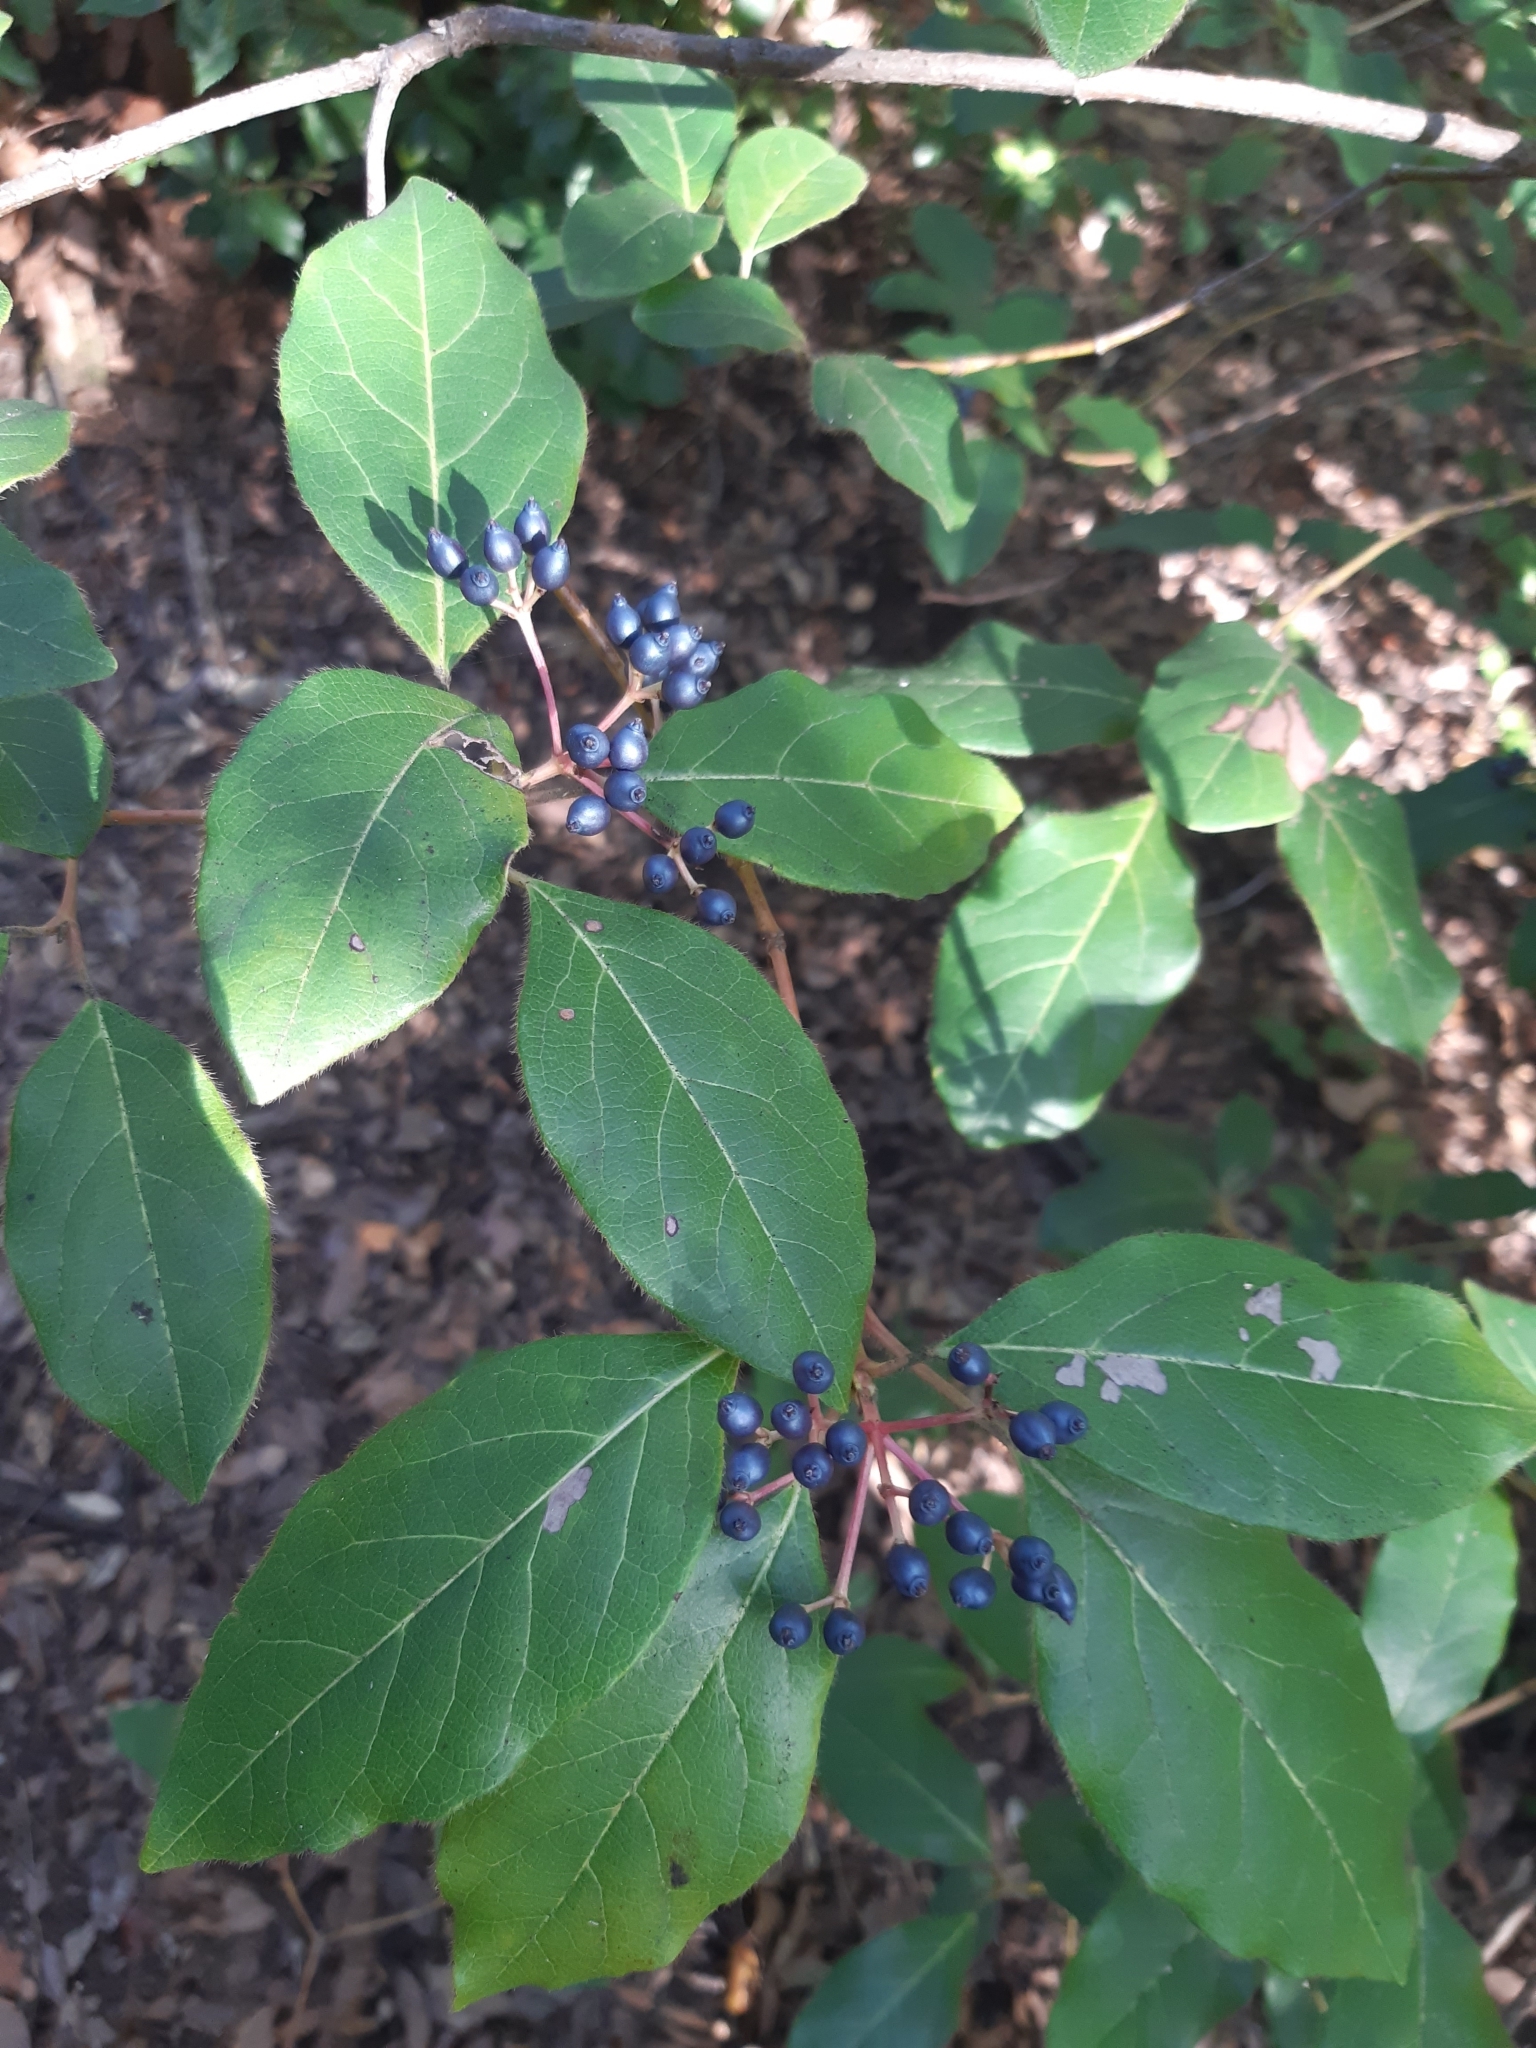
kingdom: Plantae
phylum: Tracheophyta
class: Magnoliopsida
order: Dipsacales
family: Viburnaceae
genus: Viburnum
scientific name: Viburnum tinus
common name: Laurustinus
